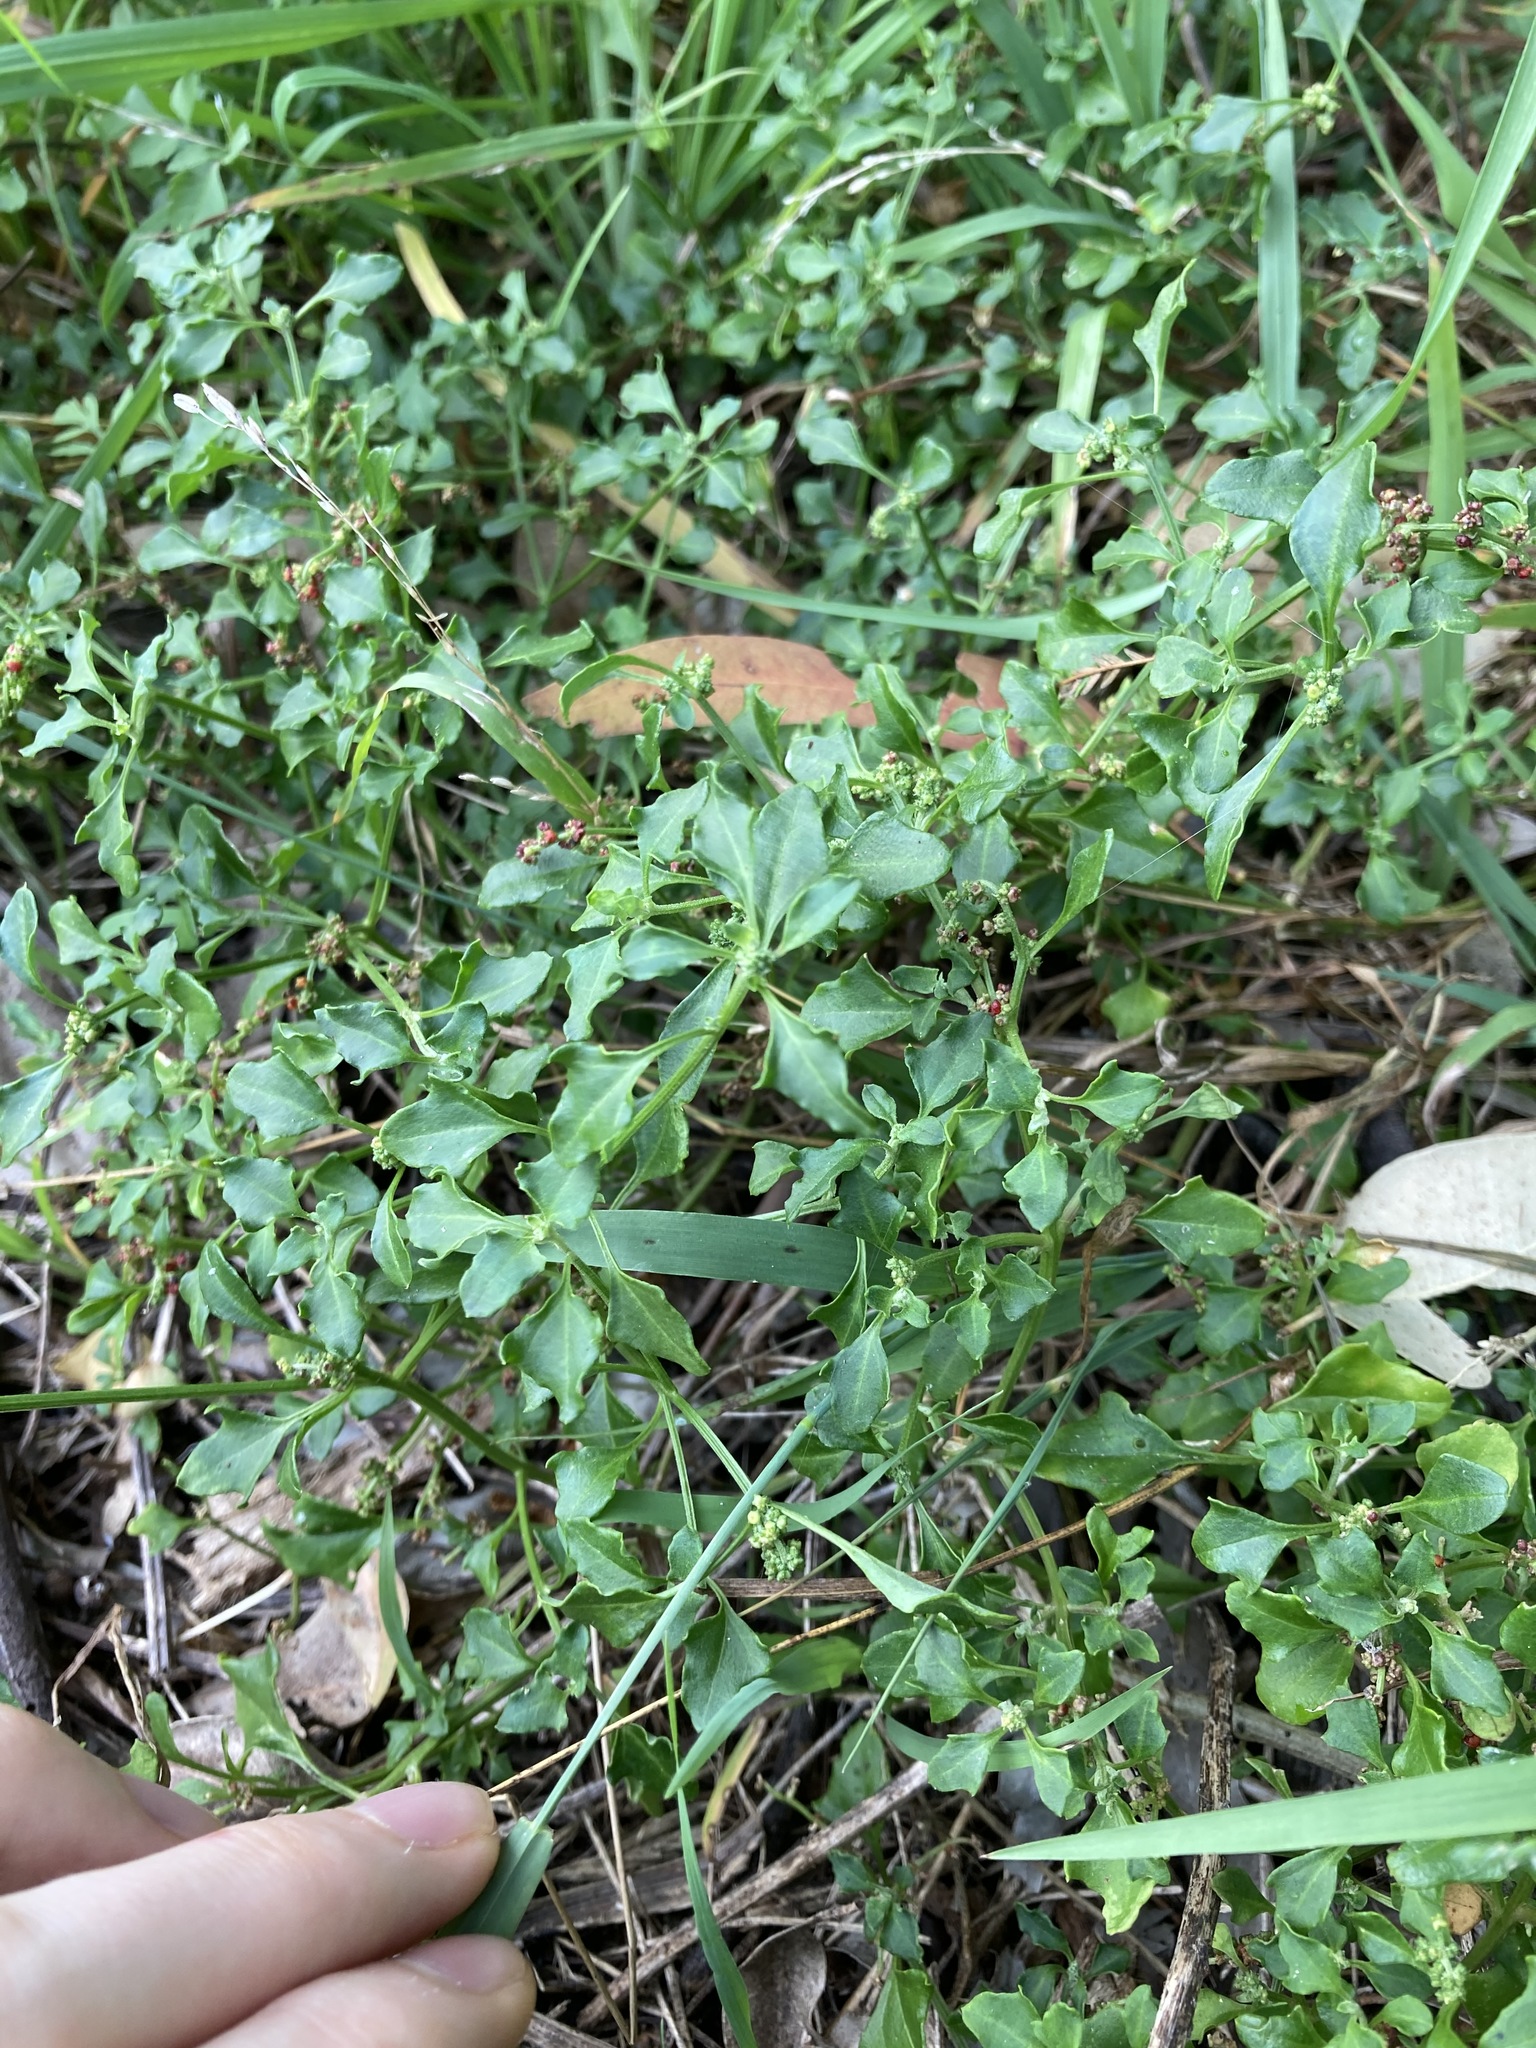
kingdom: Plantae
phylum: Tracheophyta
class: Magnoliopsida
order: Caryophyllales
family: Amaranthaceae
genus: Chenopodium
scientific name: Chenopodium robertianum
